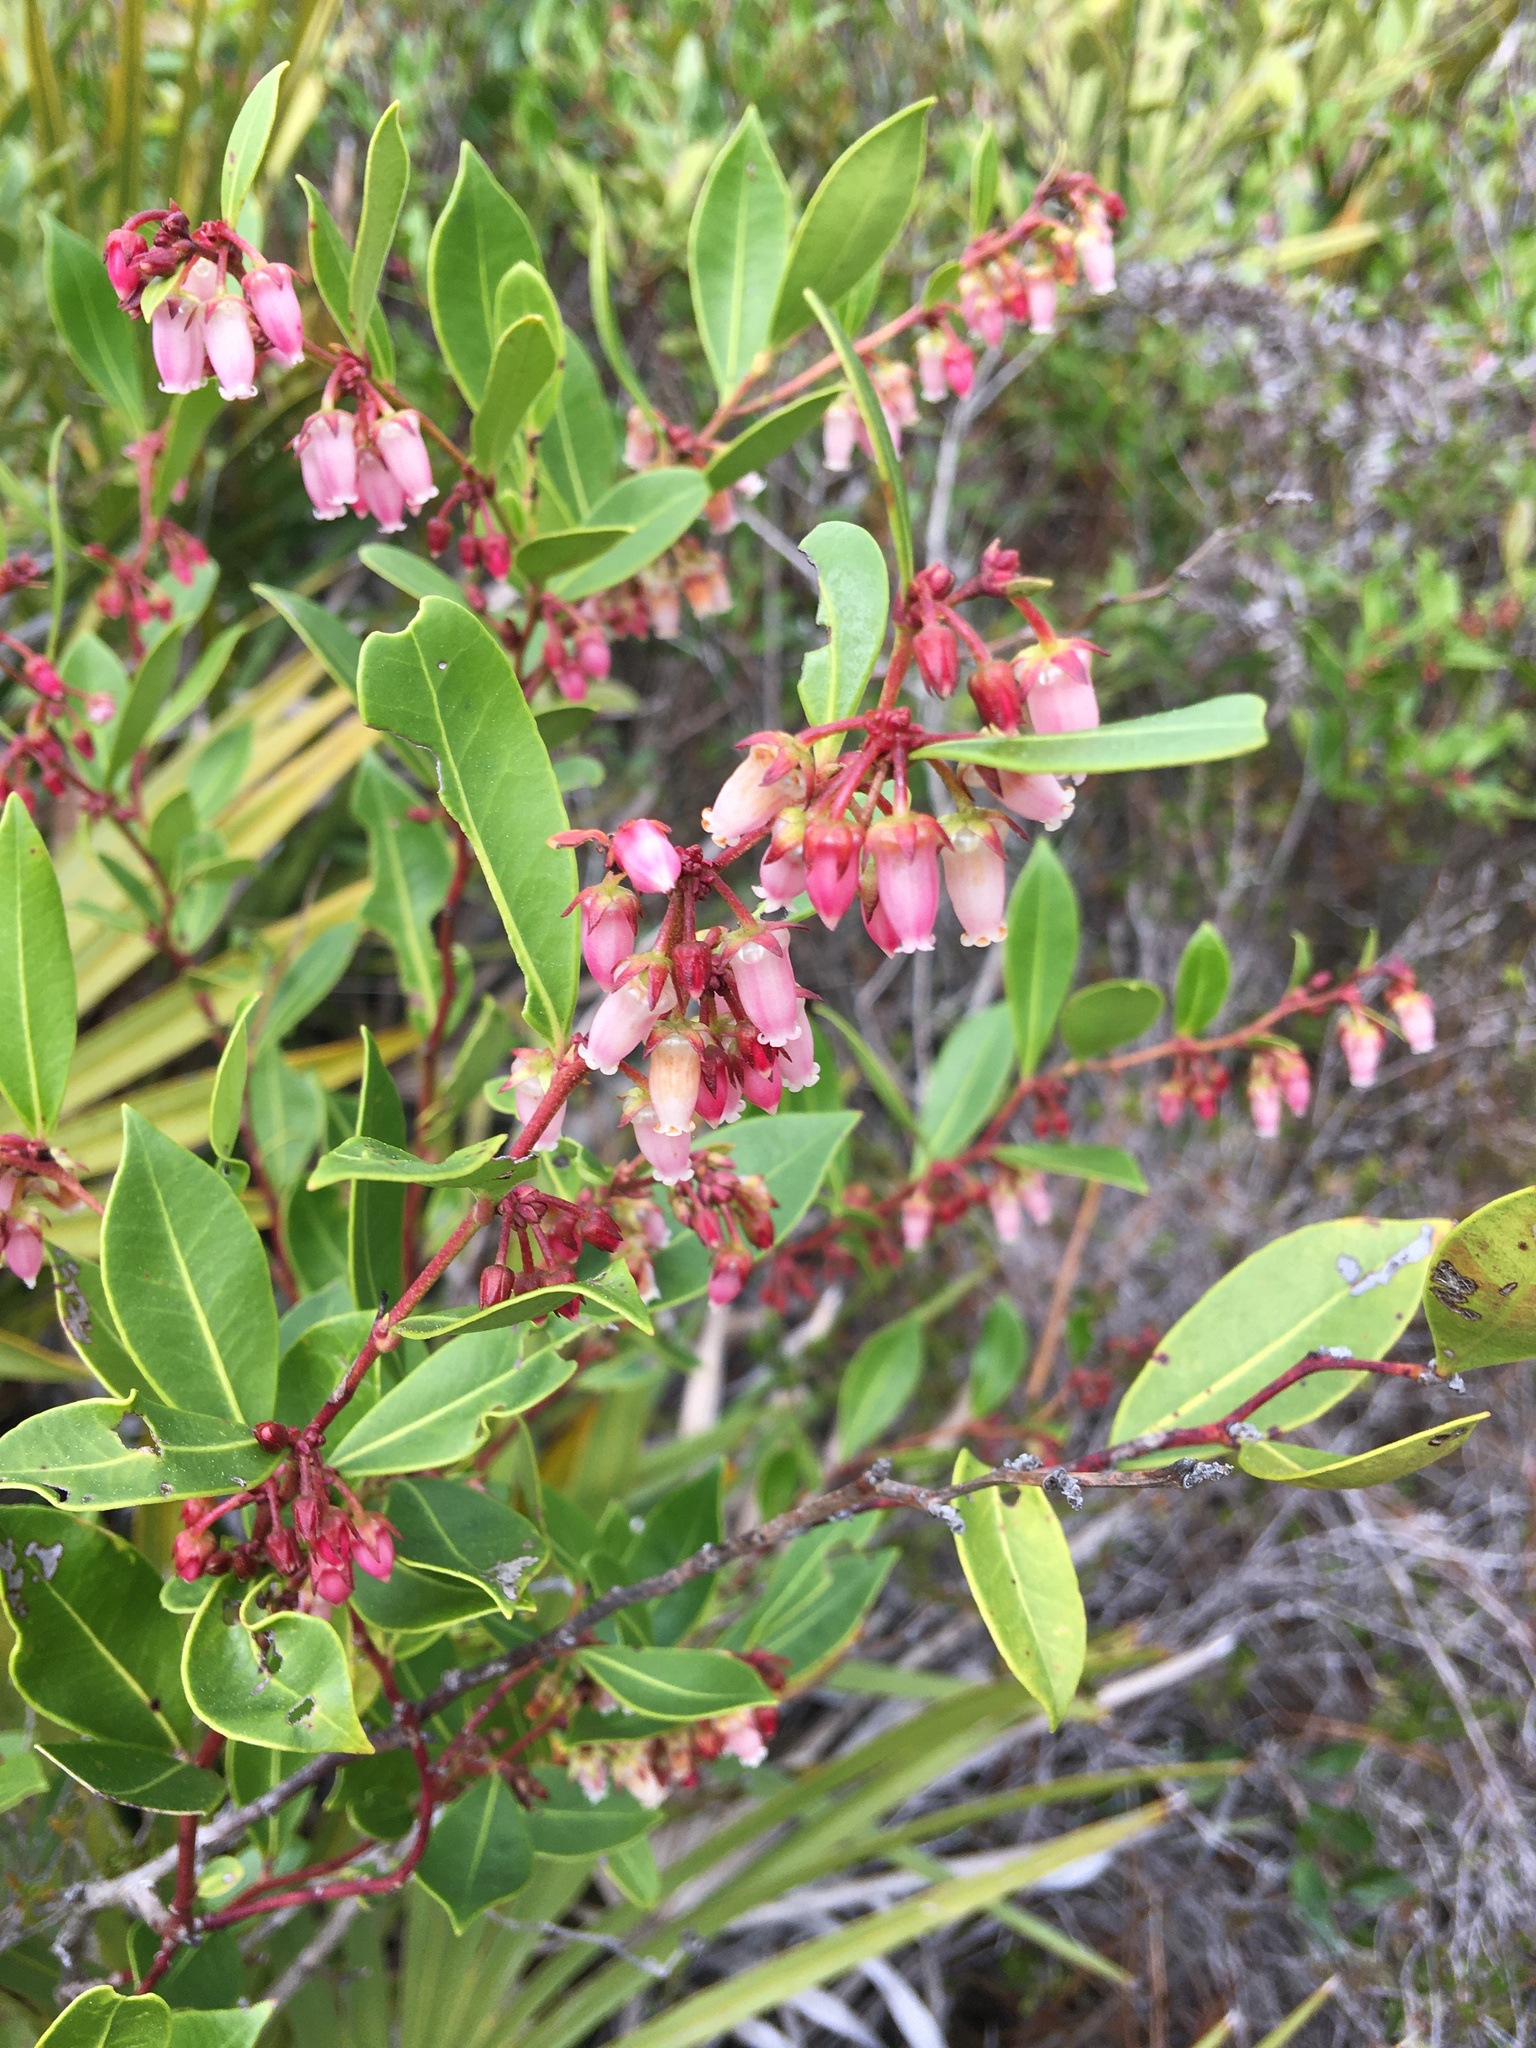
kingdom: Plantae
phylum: Tracheophyta
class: Magnoliopsida
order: Ericales
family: Ericaceae
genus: Lyonia
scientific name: Lyonia lucida
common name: Fetterbush
